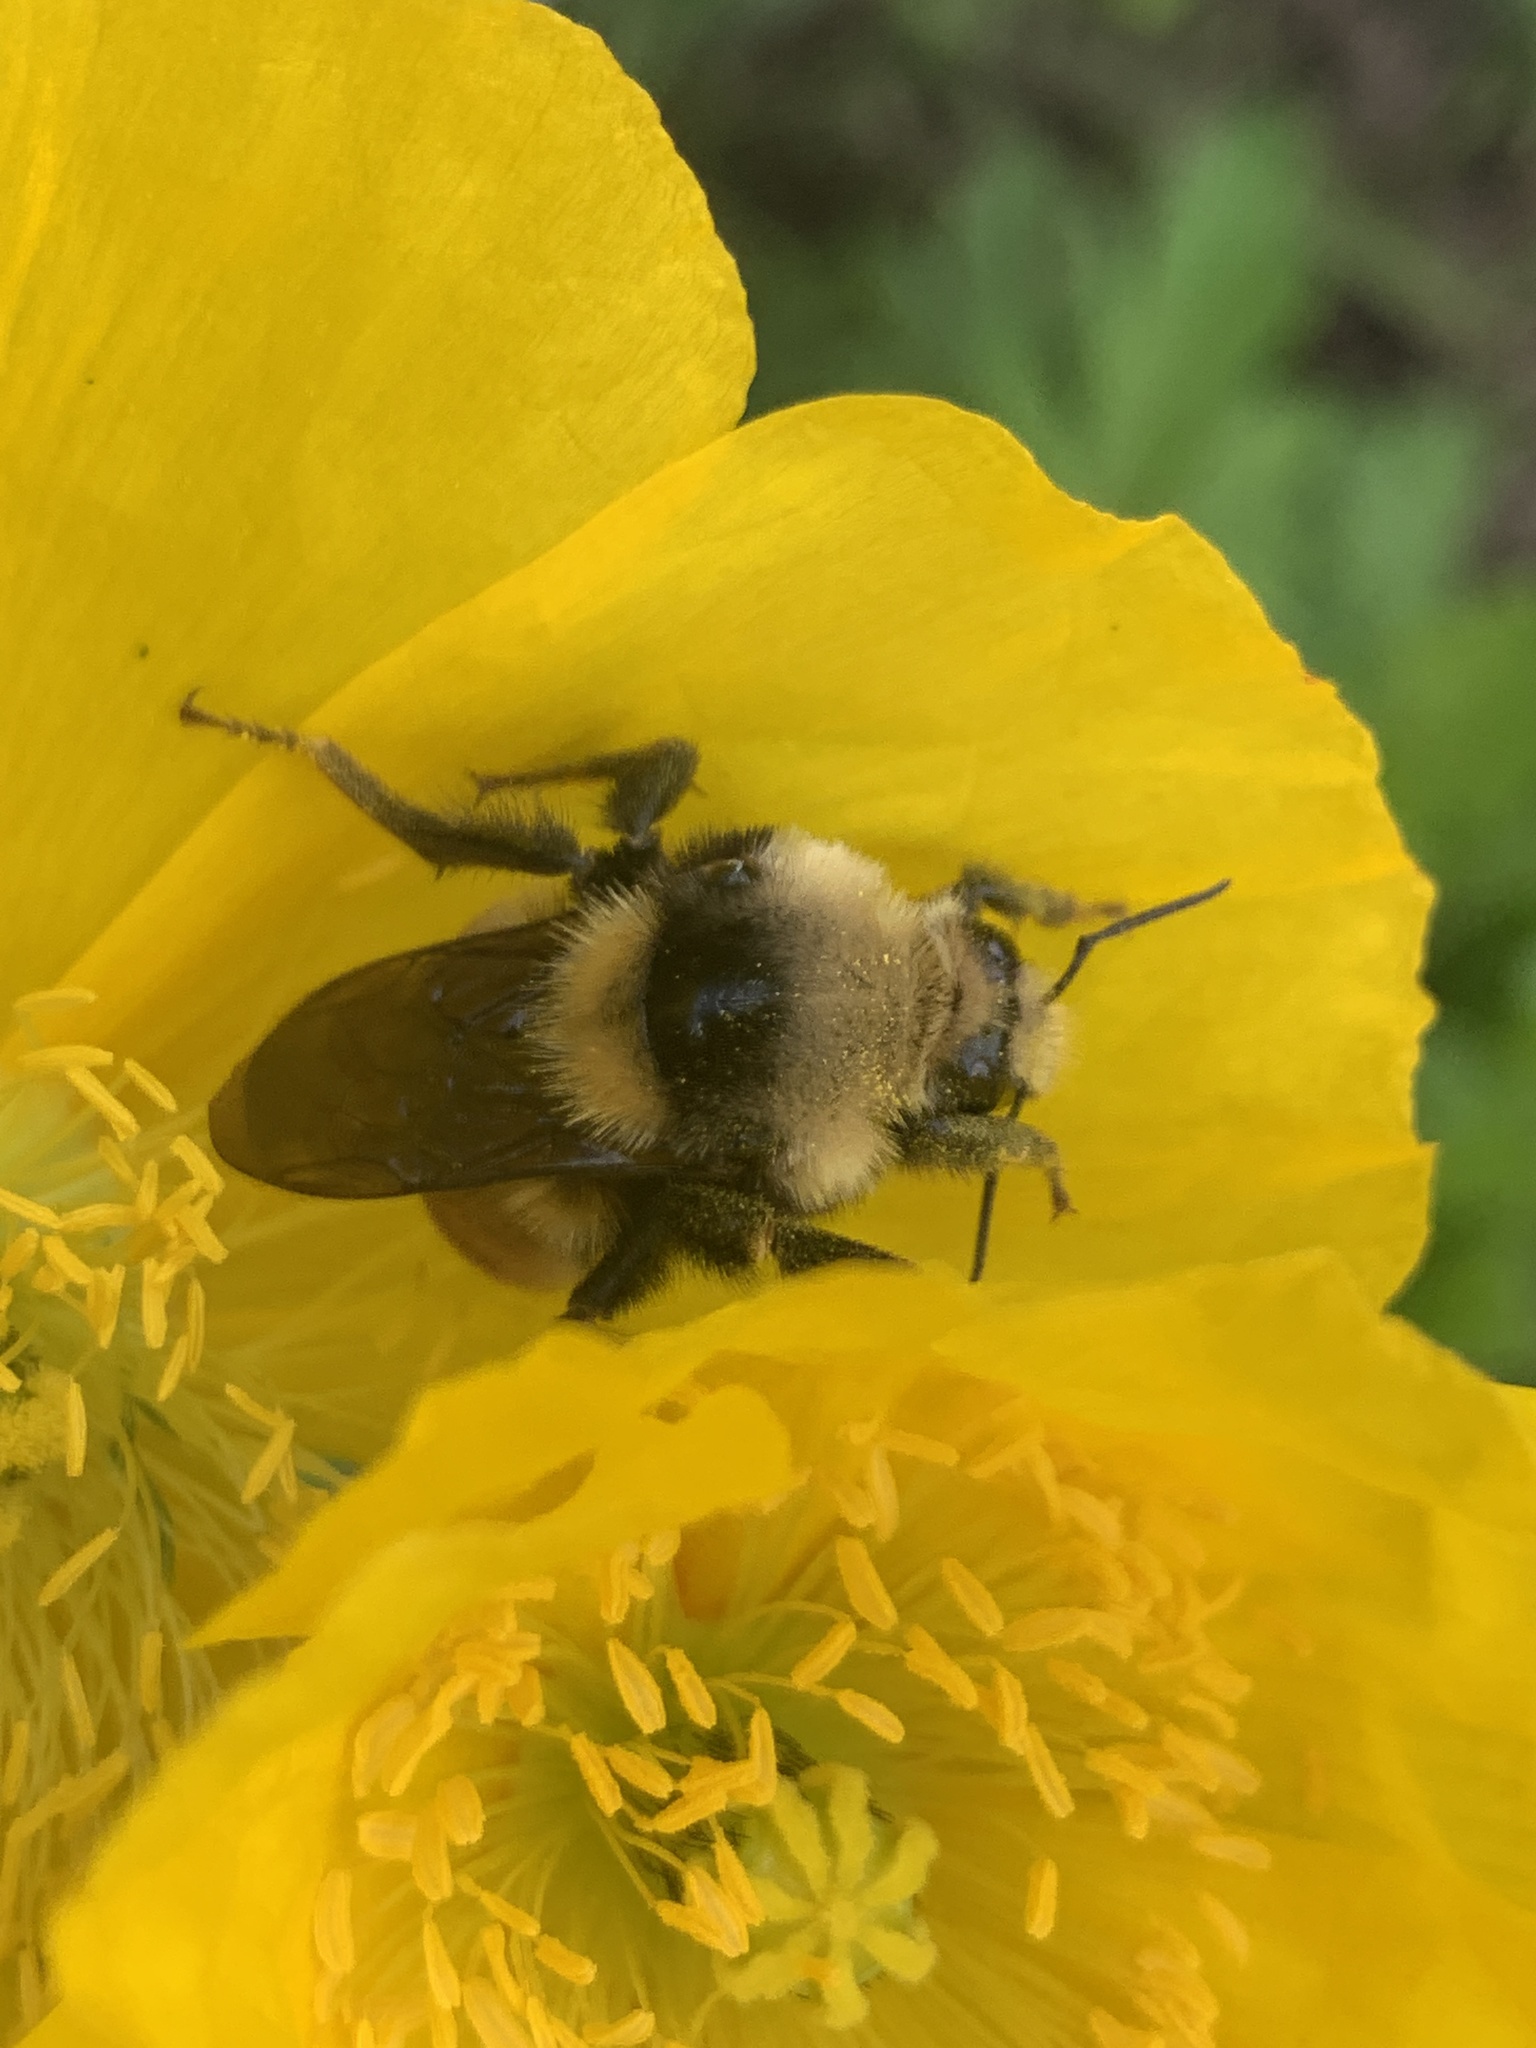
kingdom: Animalia
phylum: Arthropoda
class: Insecta
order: Hymenoptera
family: Apidae
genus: Bombus
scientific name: Bombus appositus
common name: White-shouldered bumble bee
